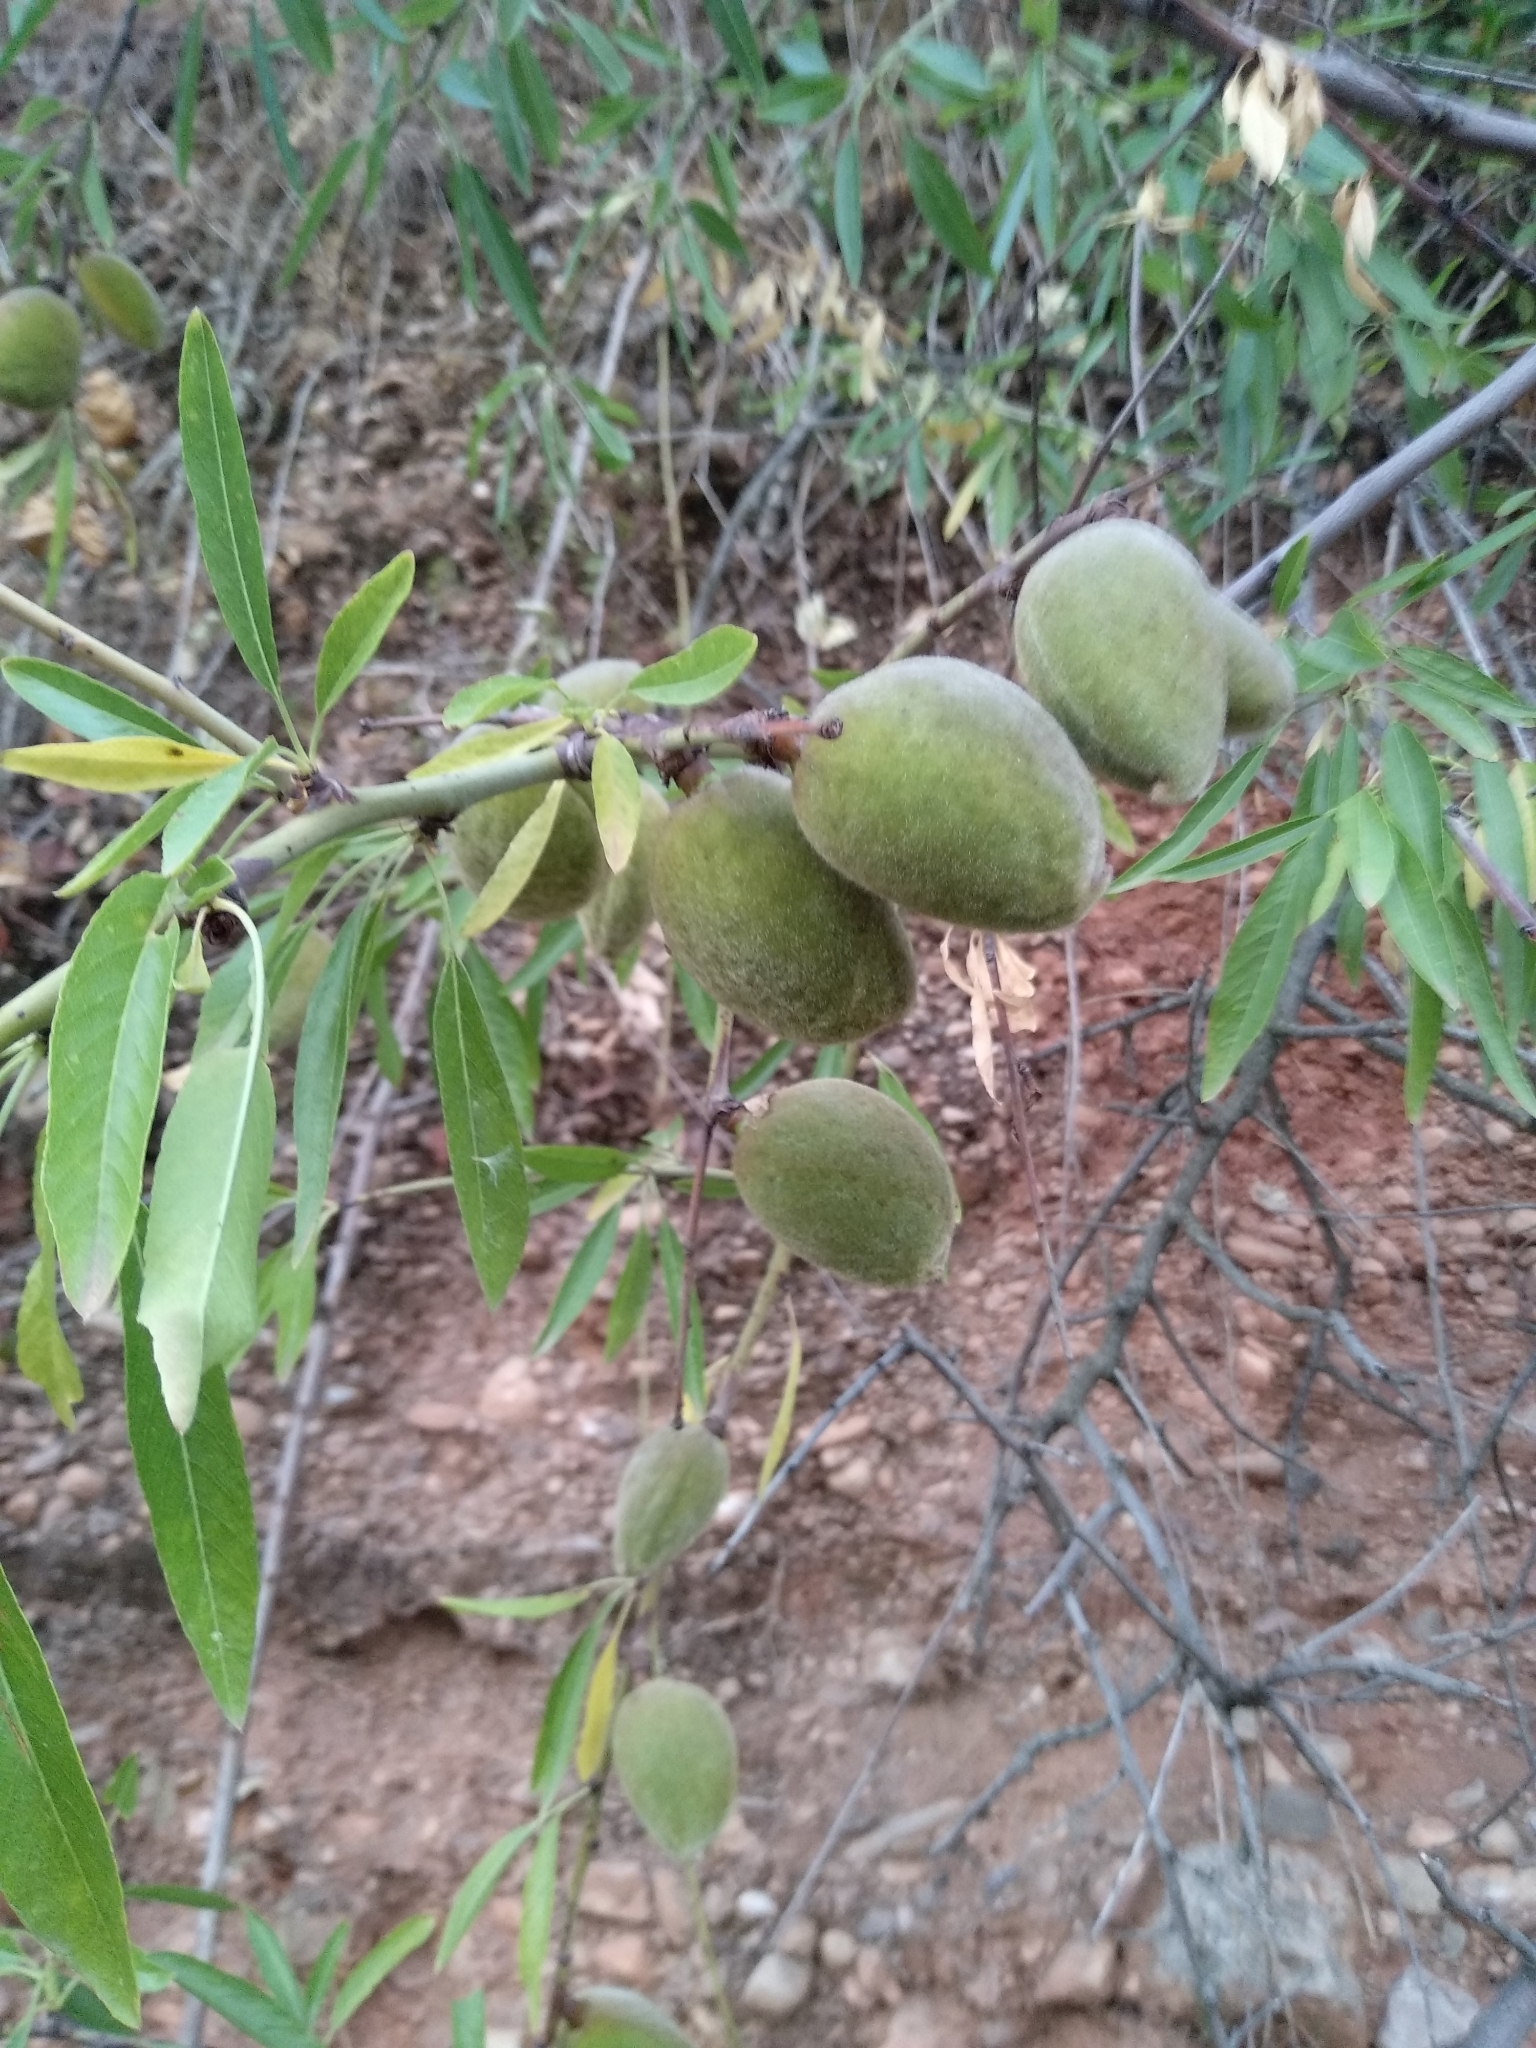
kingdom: Plantae
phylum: Tracheophyta
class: Magnoliopsida
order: Rosales
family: Rosaceae
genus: Prunus
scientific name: Prunus amygdalus
